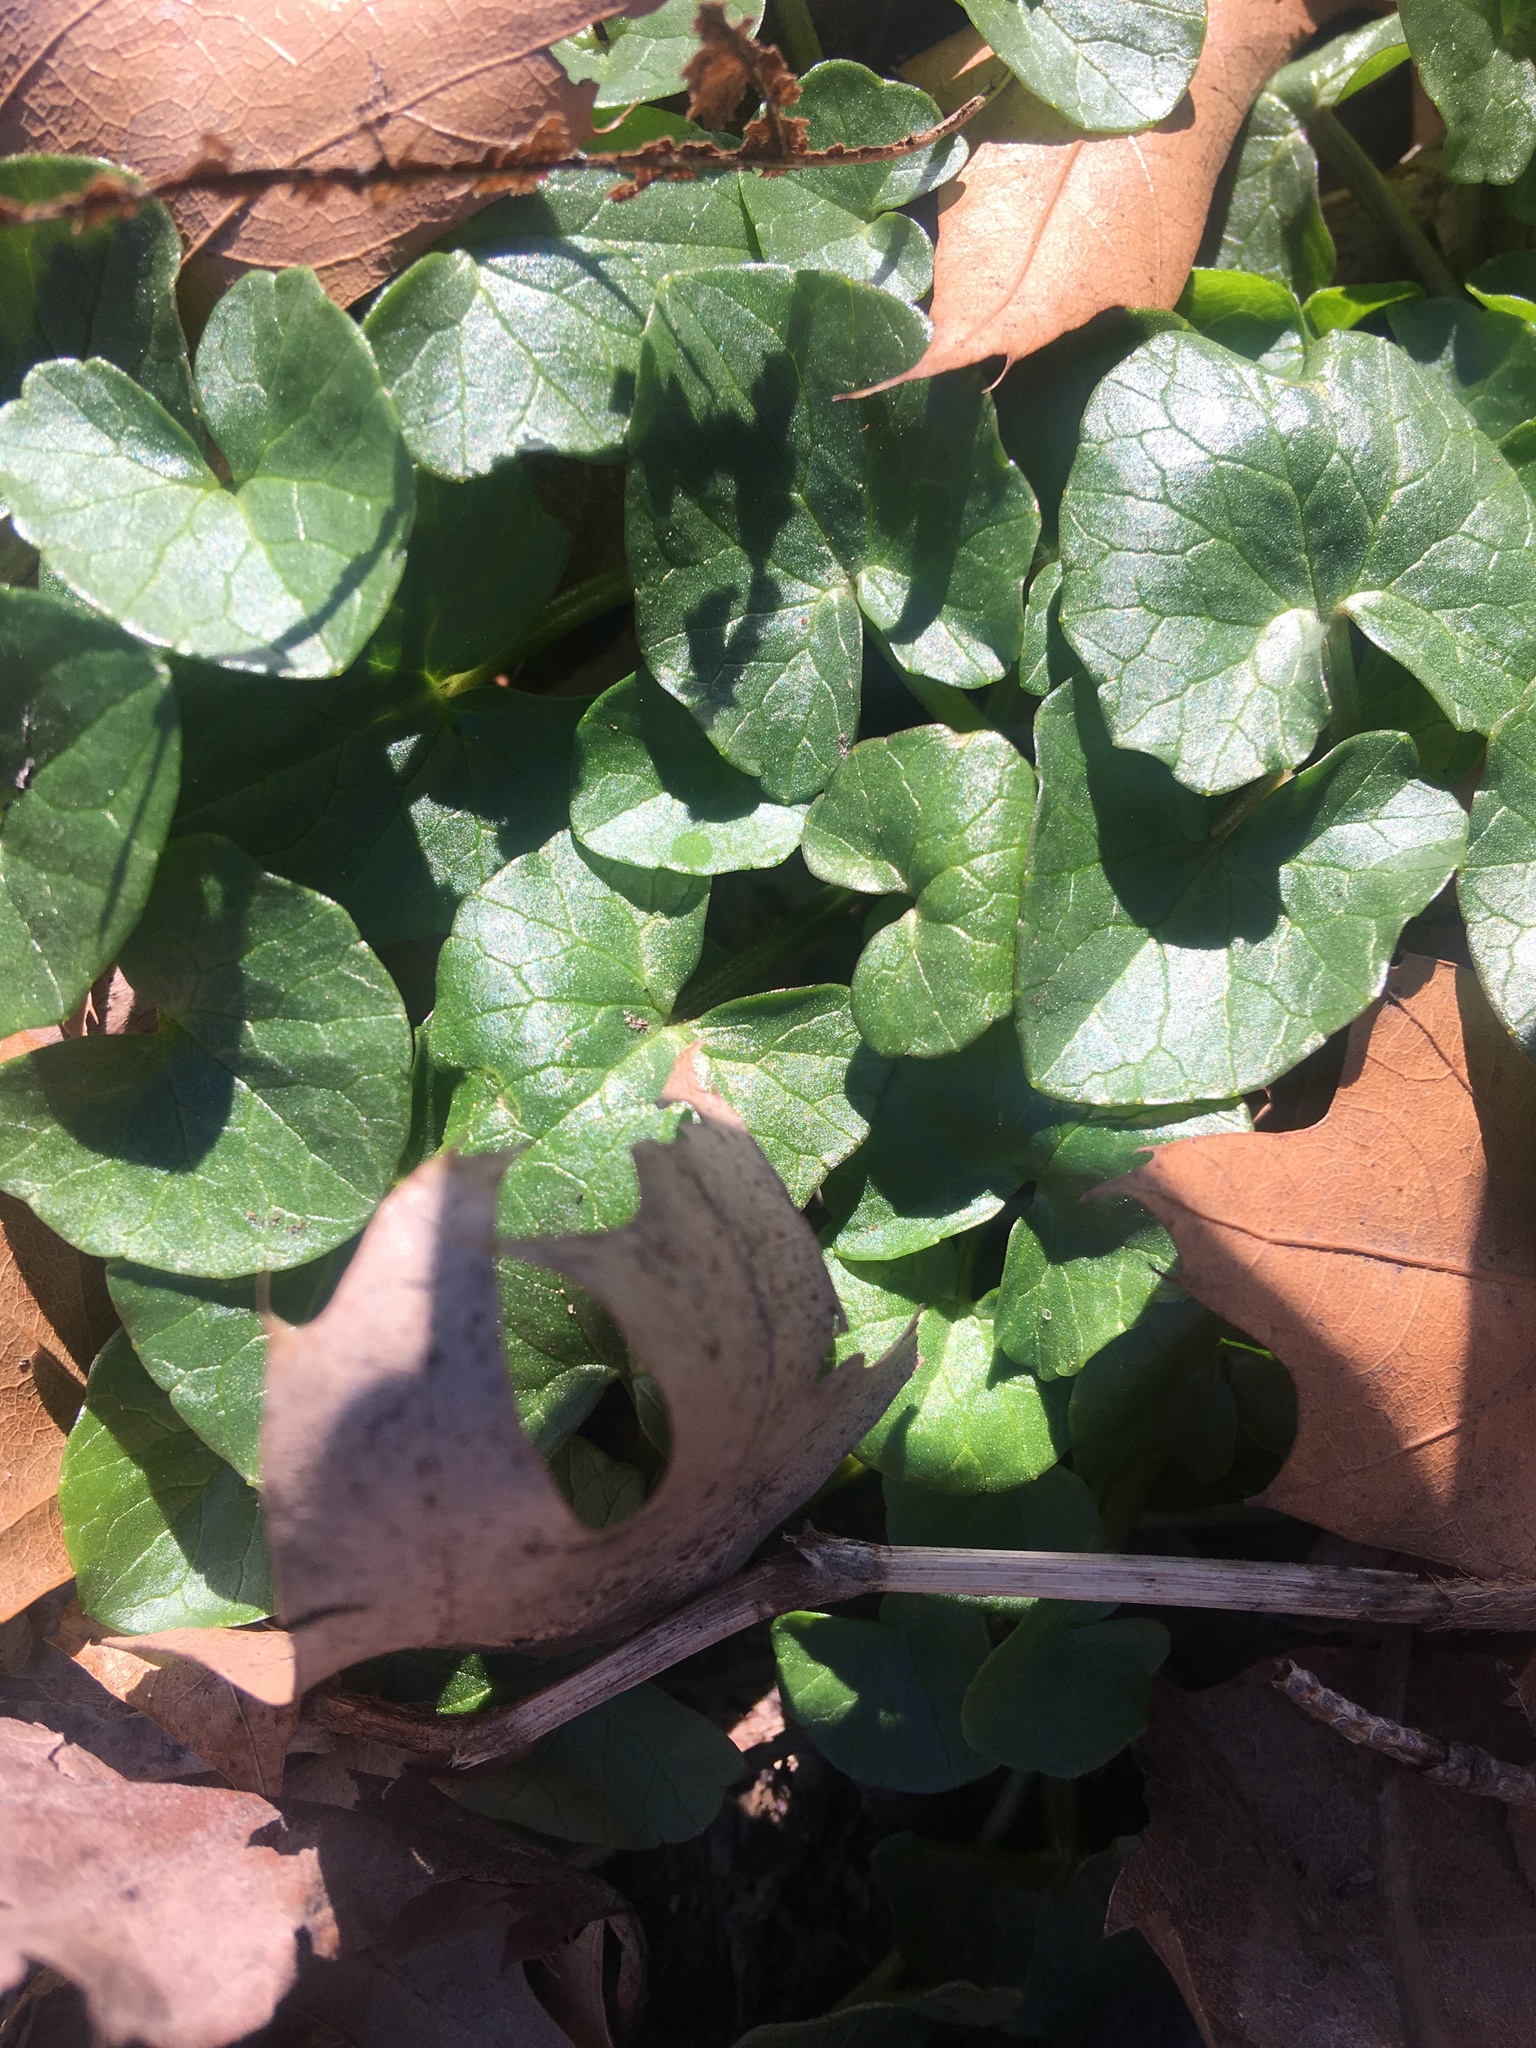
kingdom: Plantae
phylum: Tracheophyta
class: Magnoliopsida
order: Ranunculales
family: Ranunculaceae
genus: Ficaria
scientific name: Ficaria verna
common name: Lesser celandine
